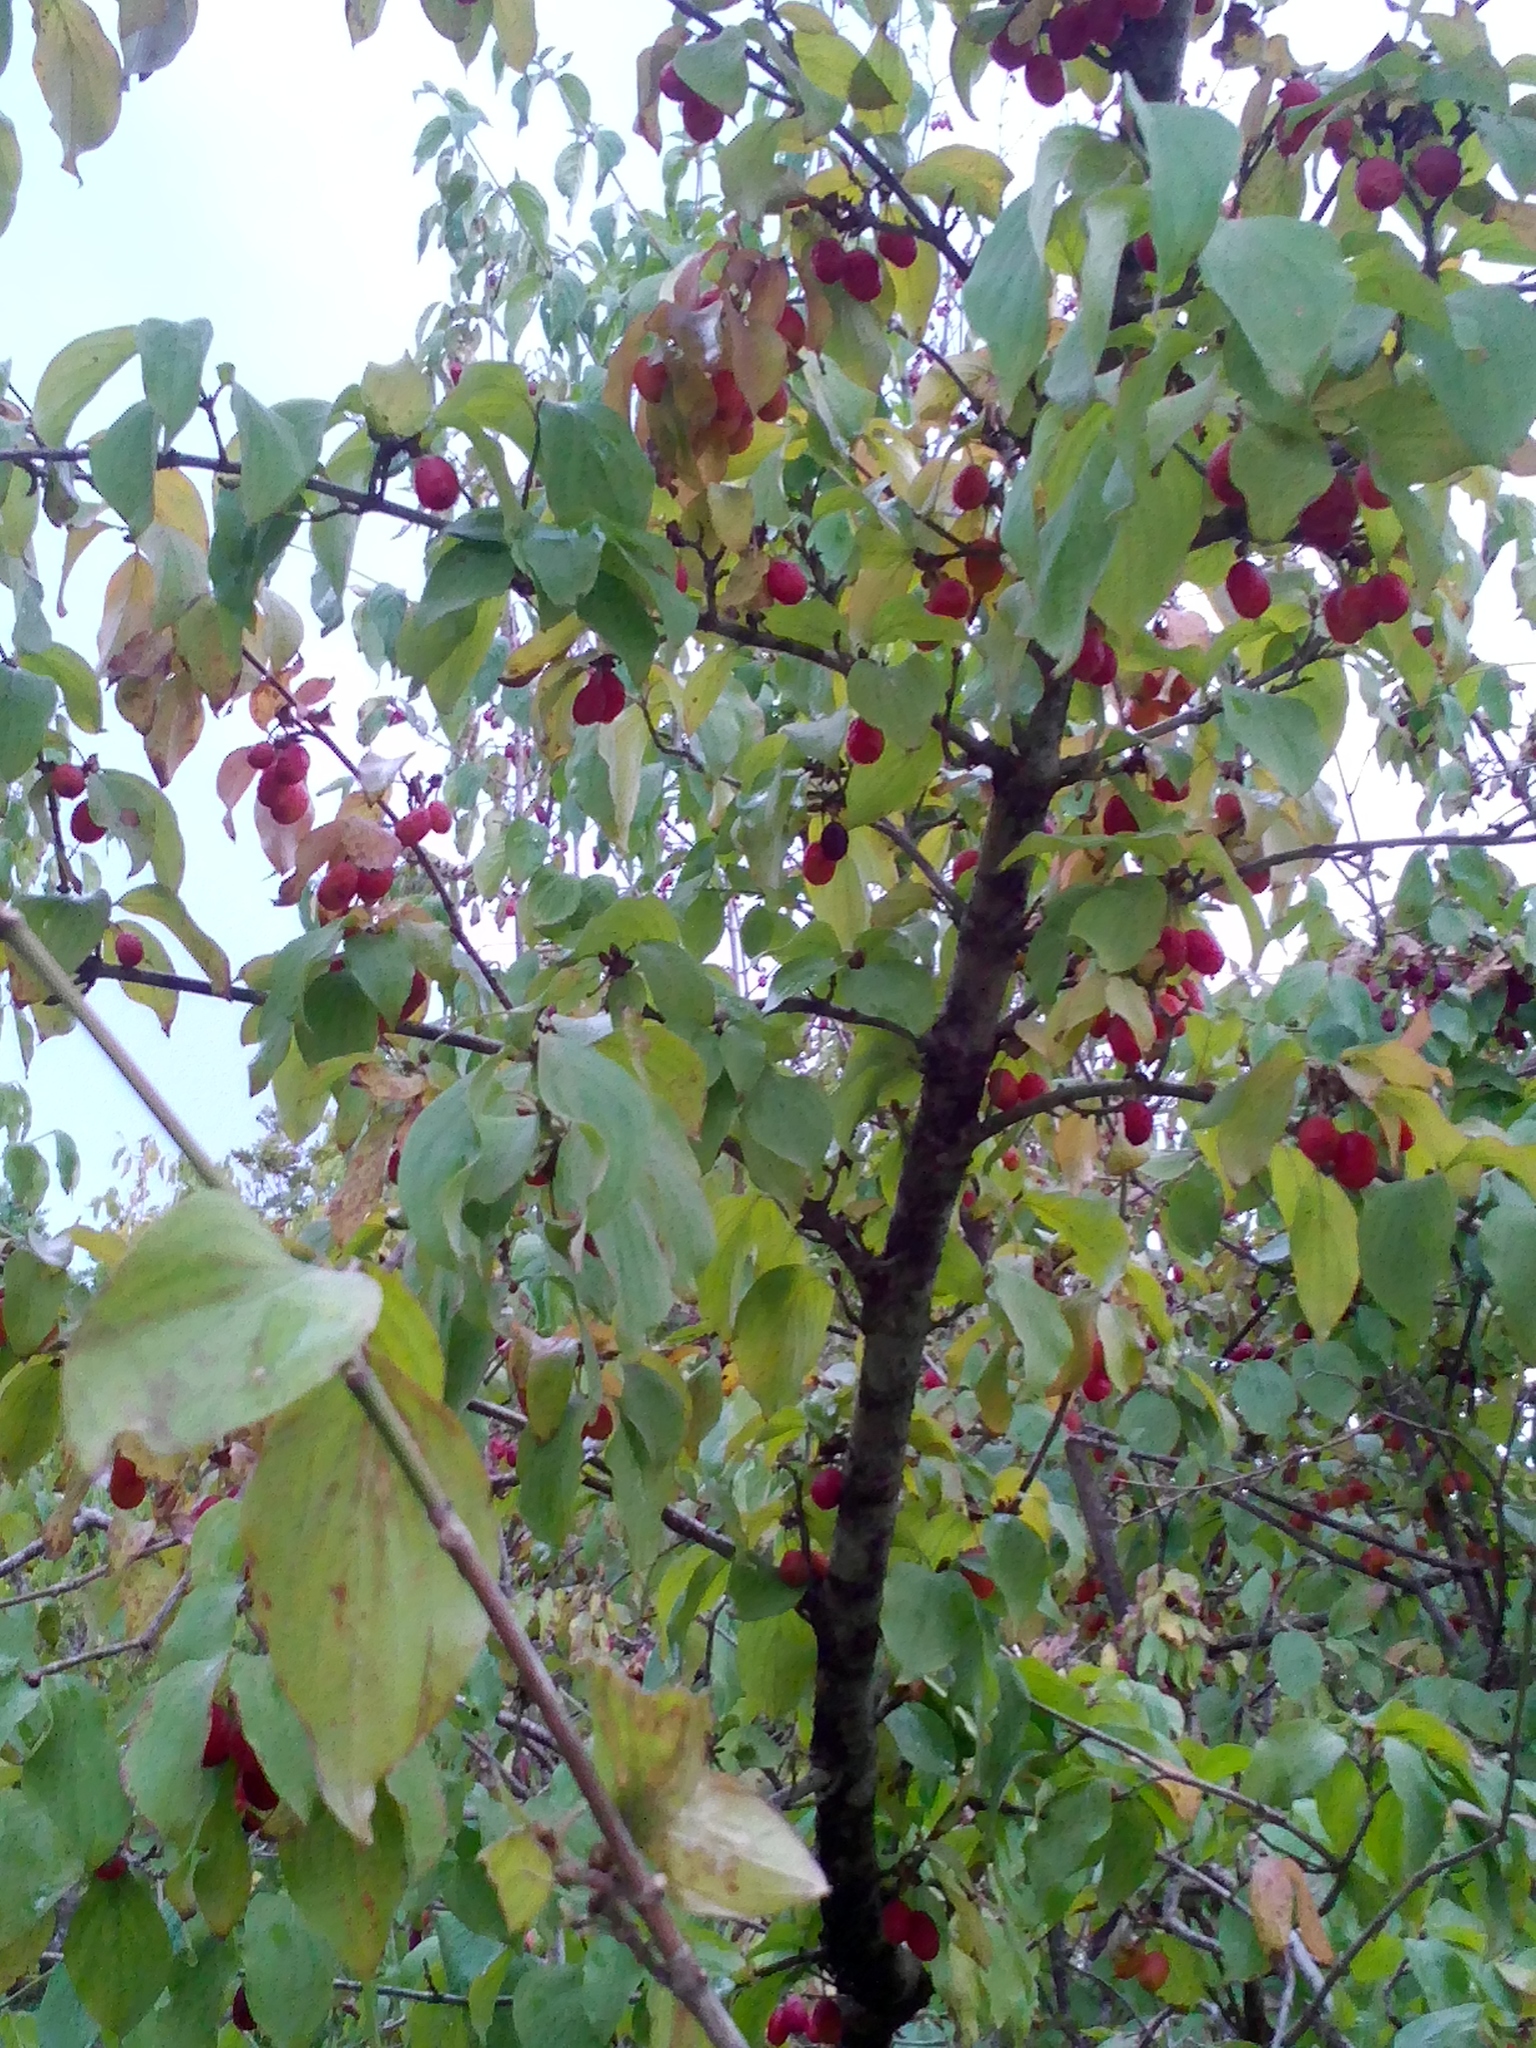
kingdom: Plantae
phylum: Tracheophyta
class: Magnoliopsida
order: Cornales
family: Cornaceae
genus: Cornus
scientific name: Cornus mas
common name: Cornelian-cherry
